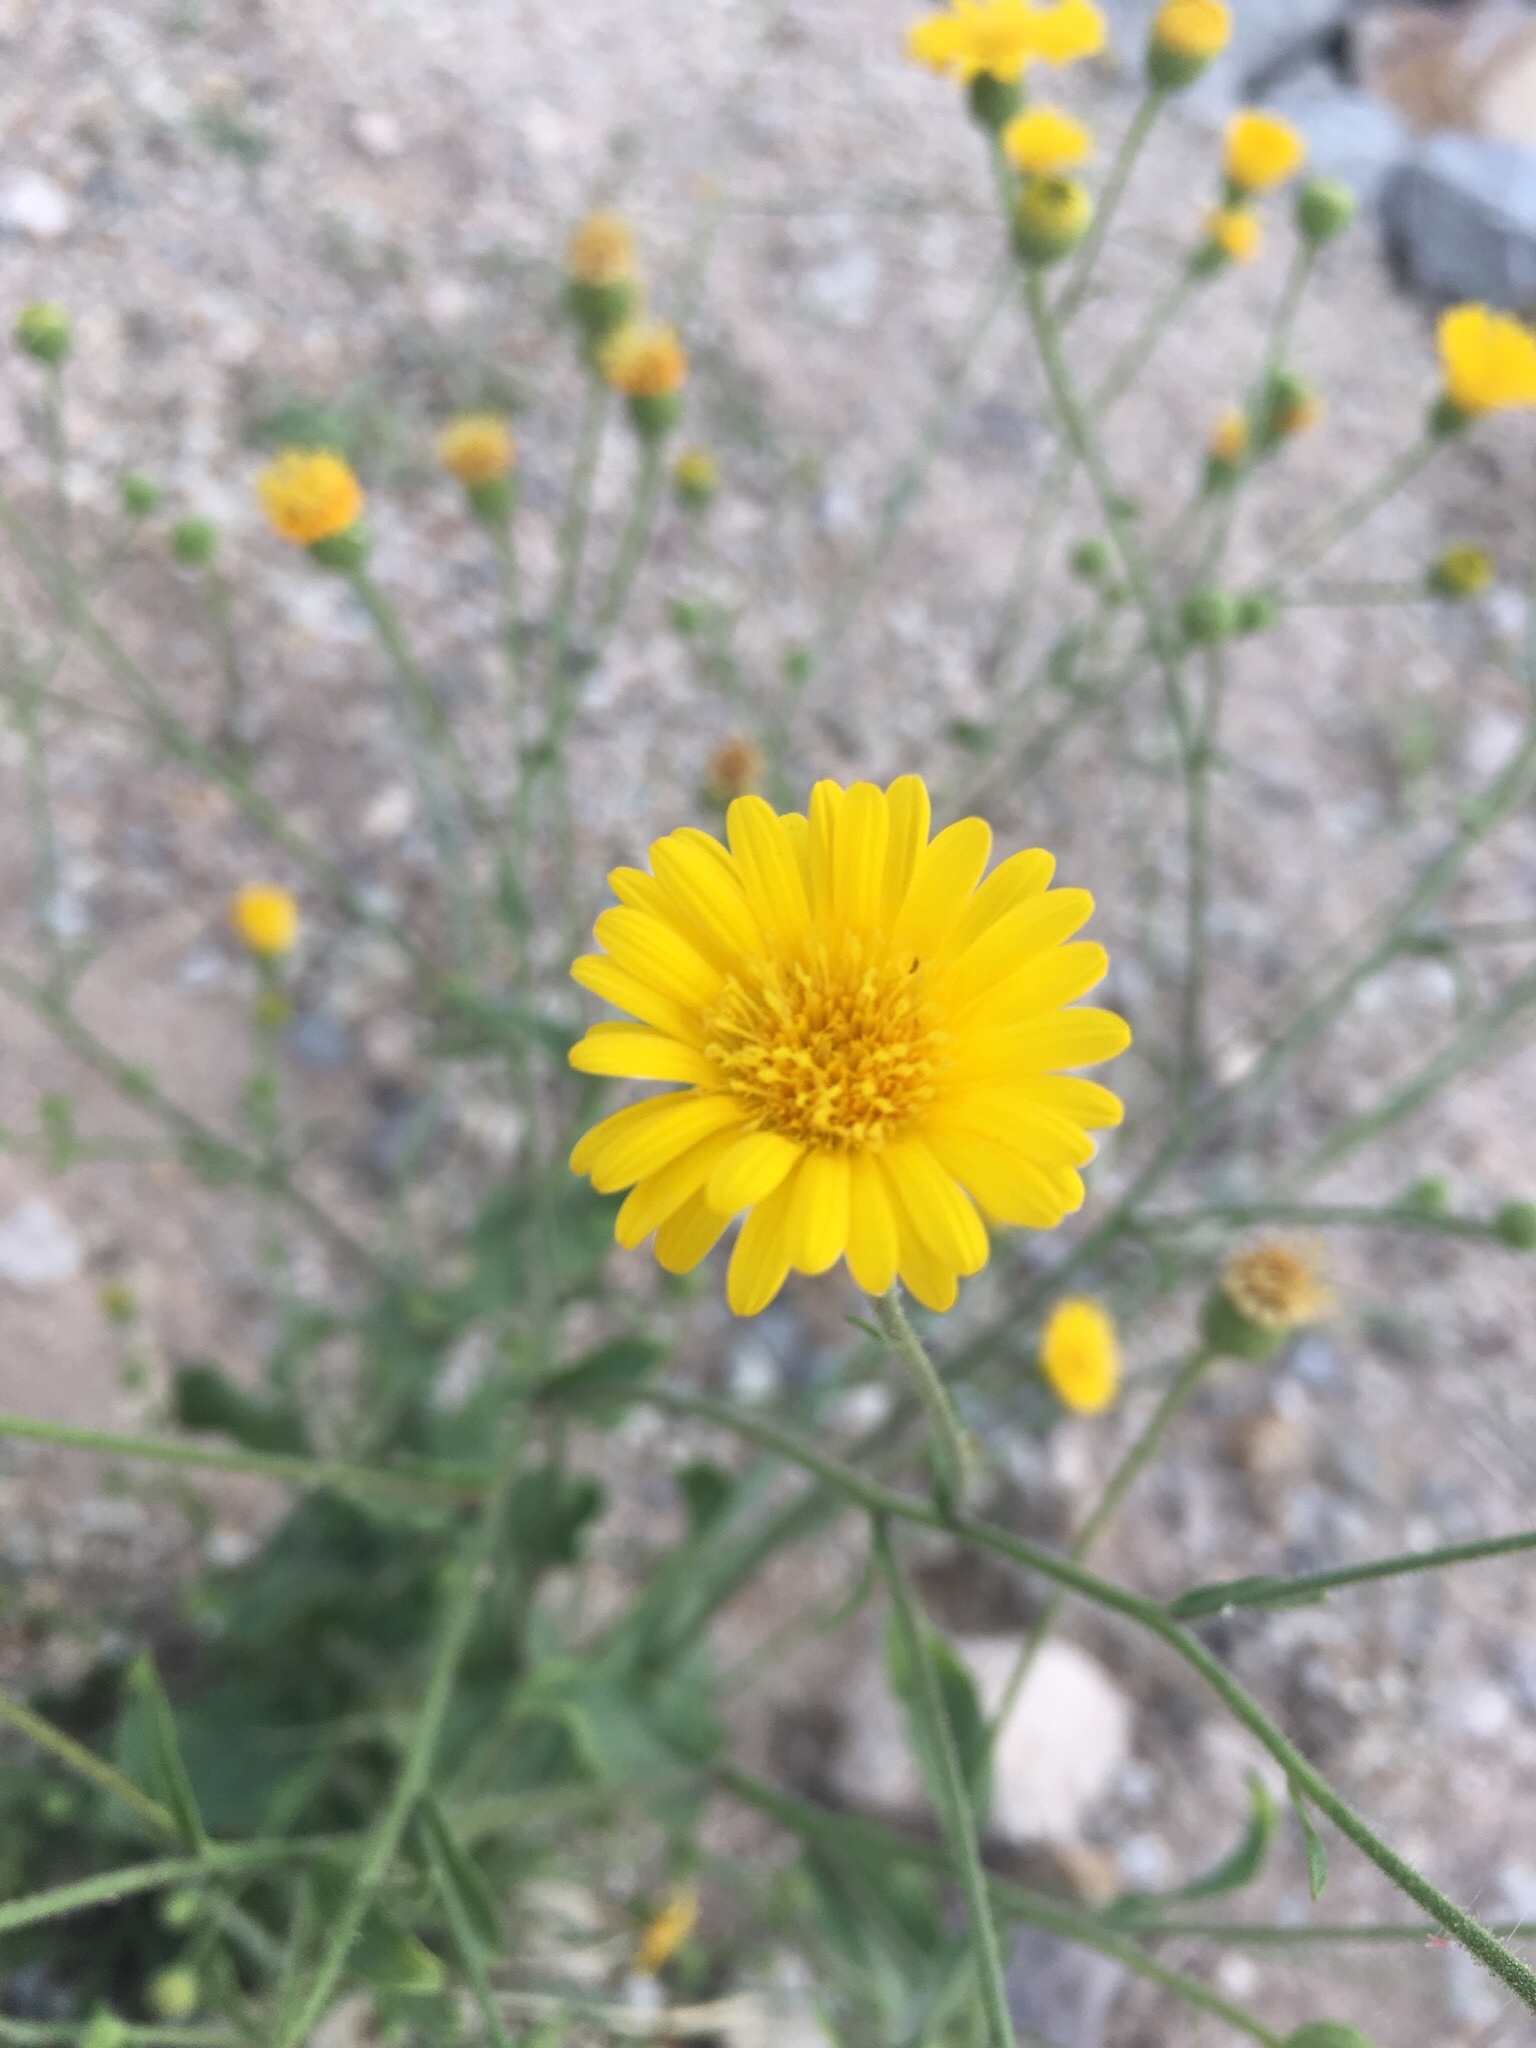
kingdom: Plantae
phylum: Tracheophyta
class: Magnoliopsida
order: Asterales
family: Asteraceae
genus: Heterotheca
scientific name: Heterotheca subaxillaris
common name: Camphorweed
